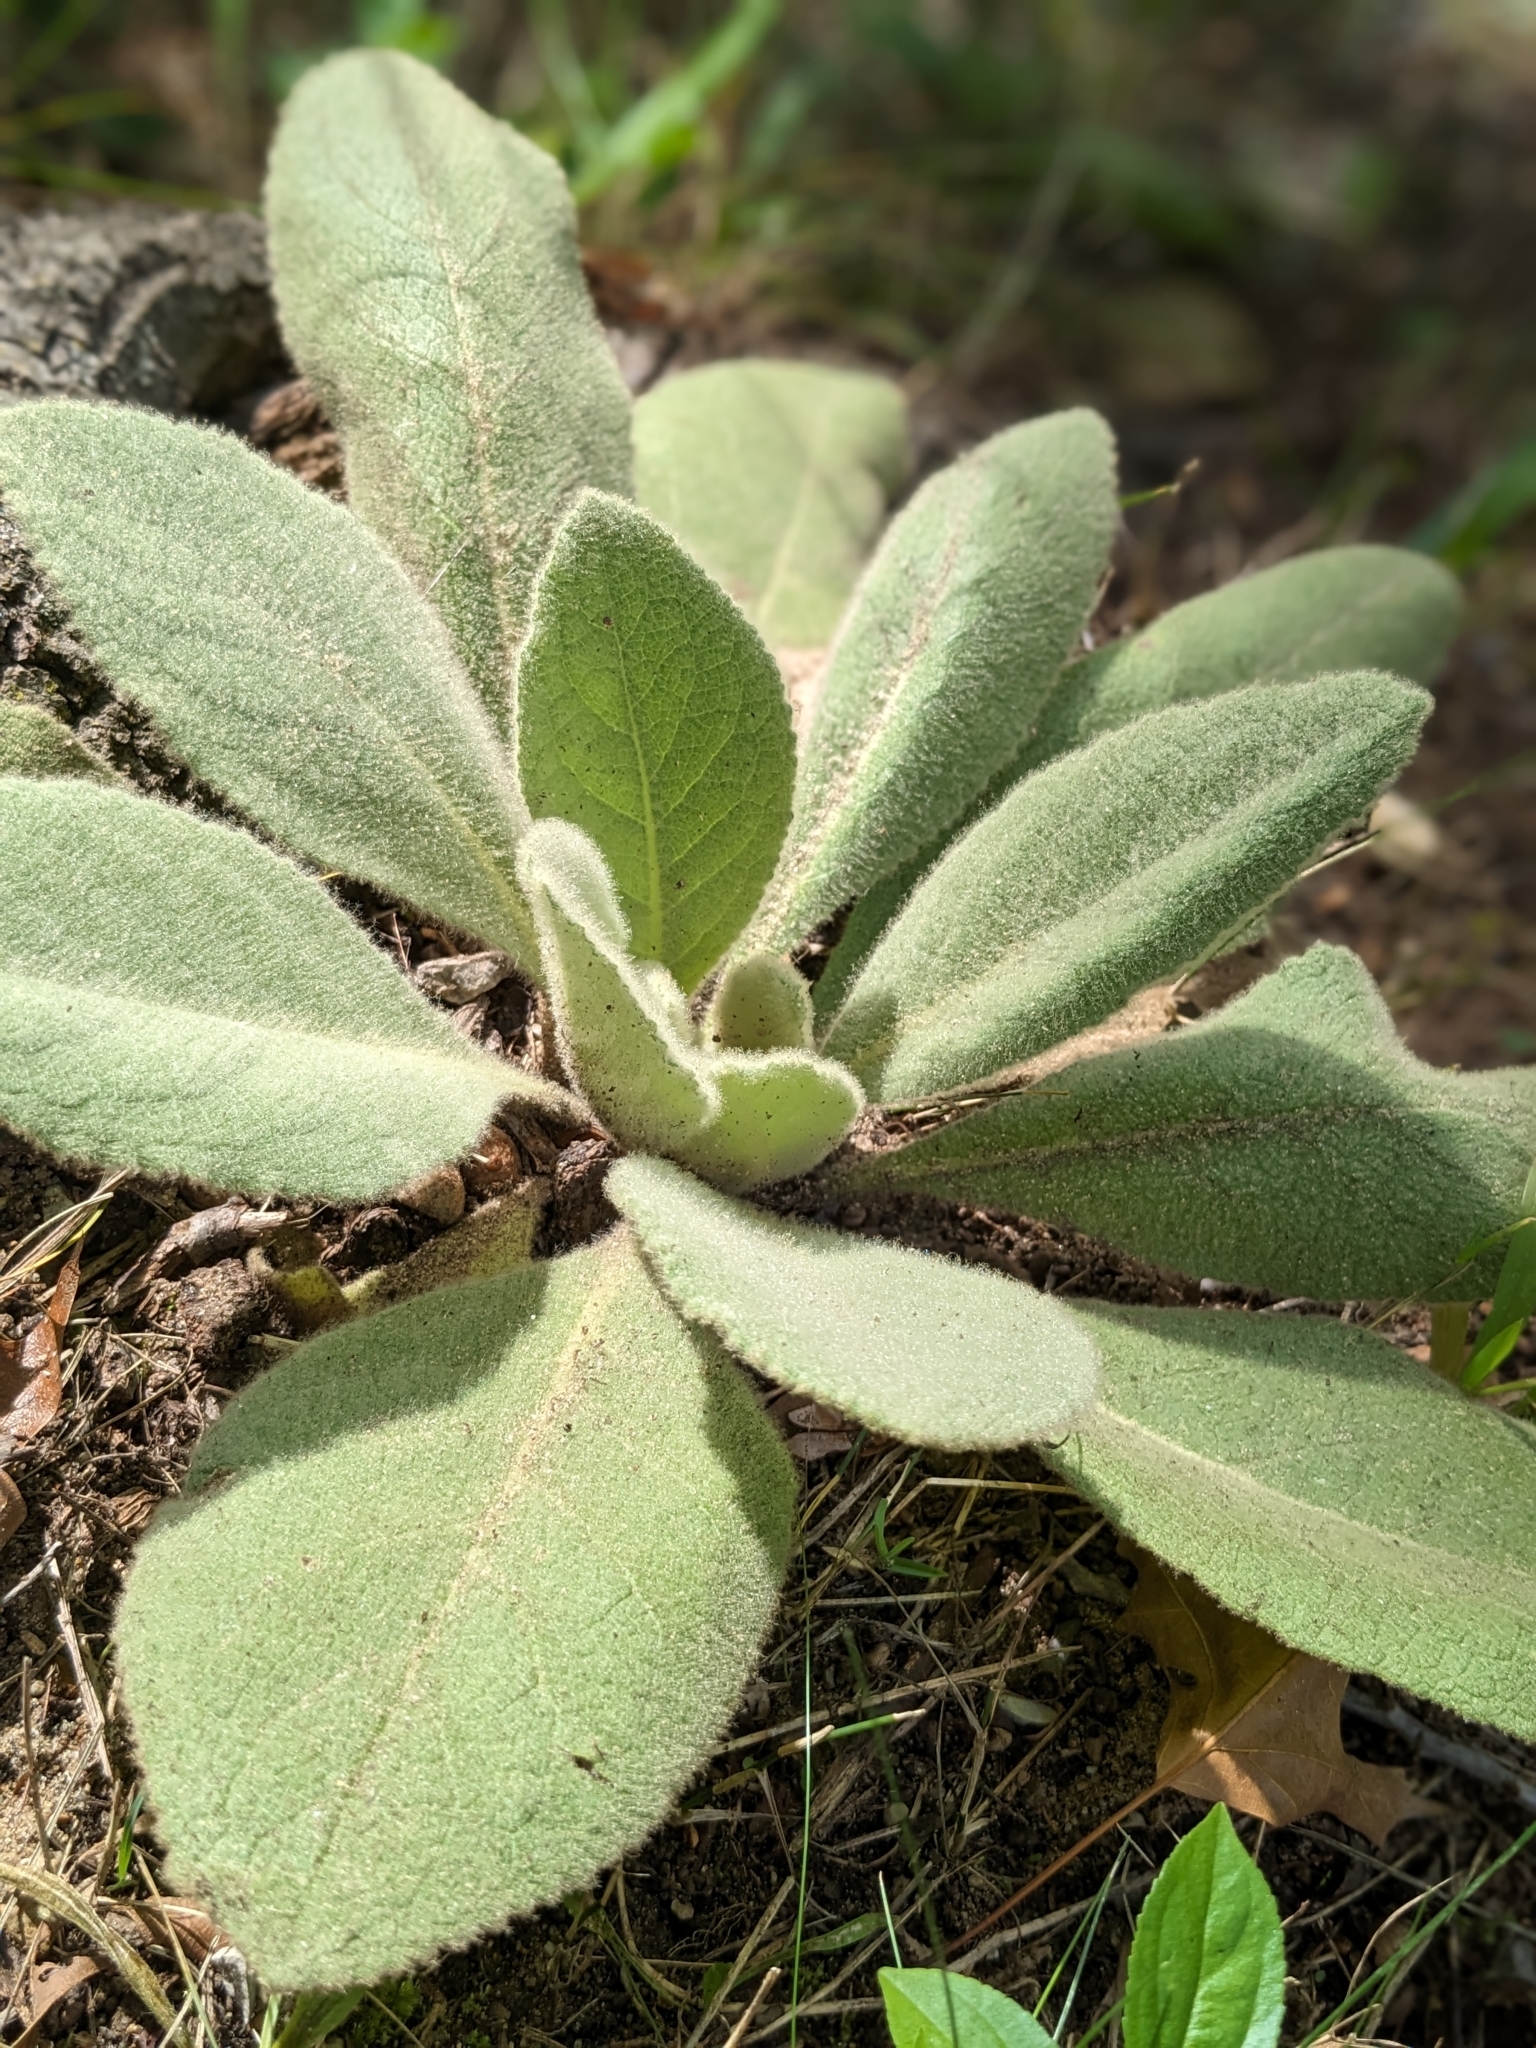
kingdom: Plantae
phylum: Tracheophyta
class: Magnoliopsida
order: Lamiales
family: Scrophulariaceae
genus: Verbascum
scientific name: Verbascum thapsus
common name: Common mullein
